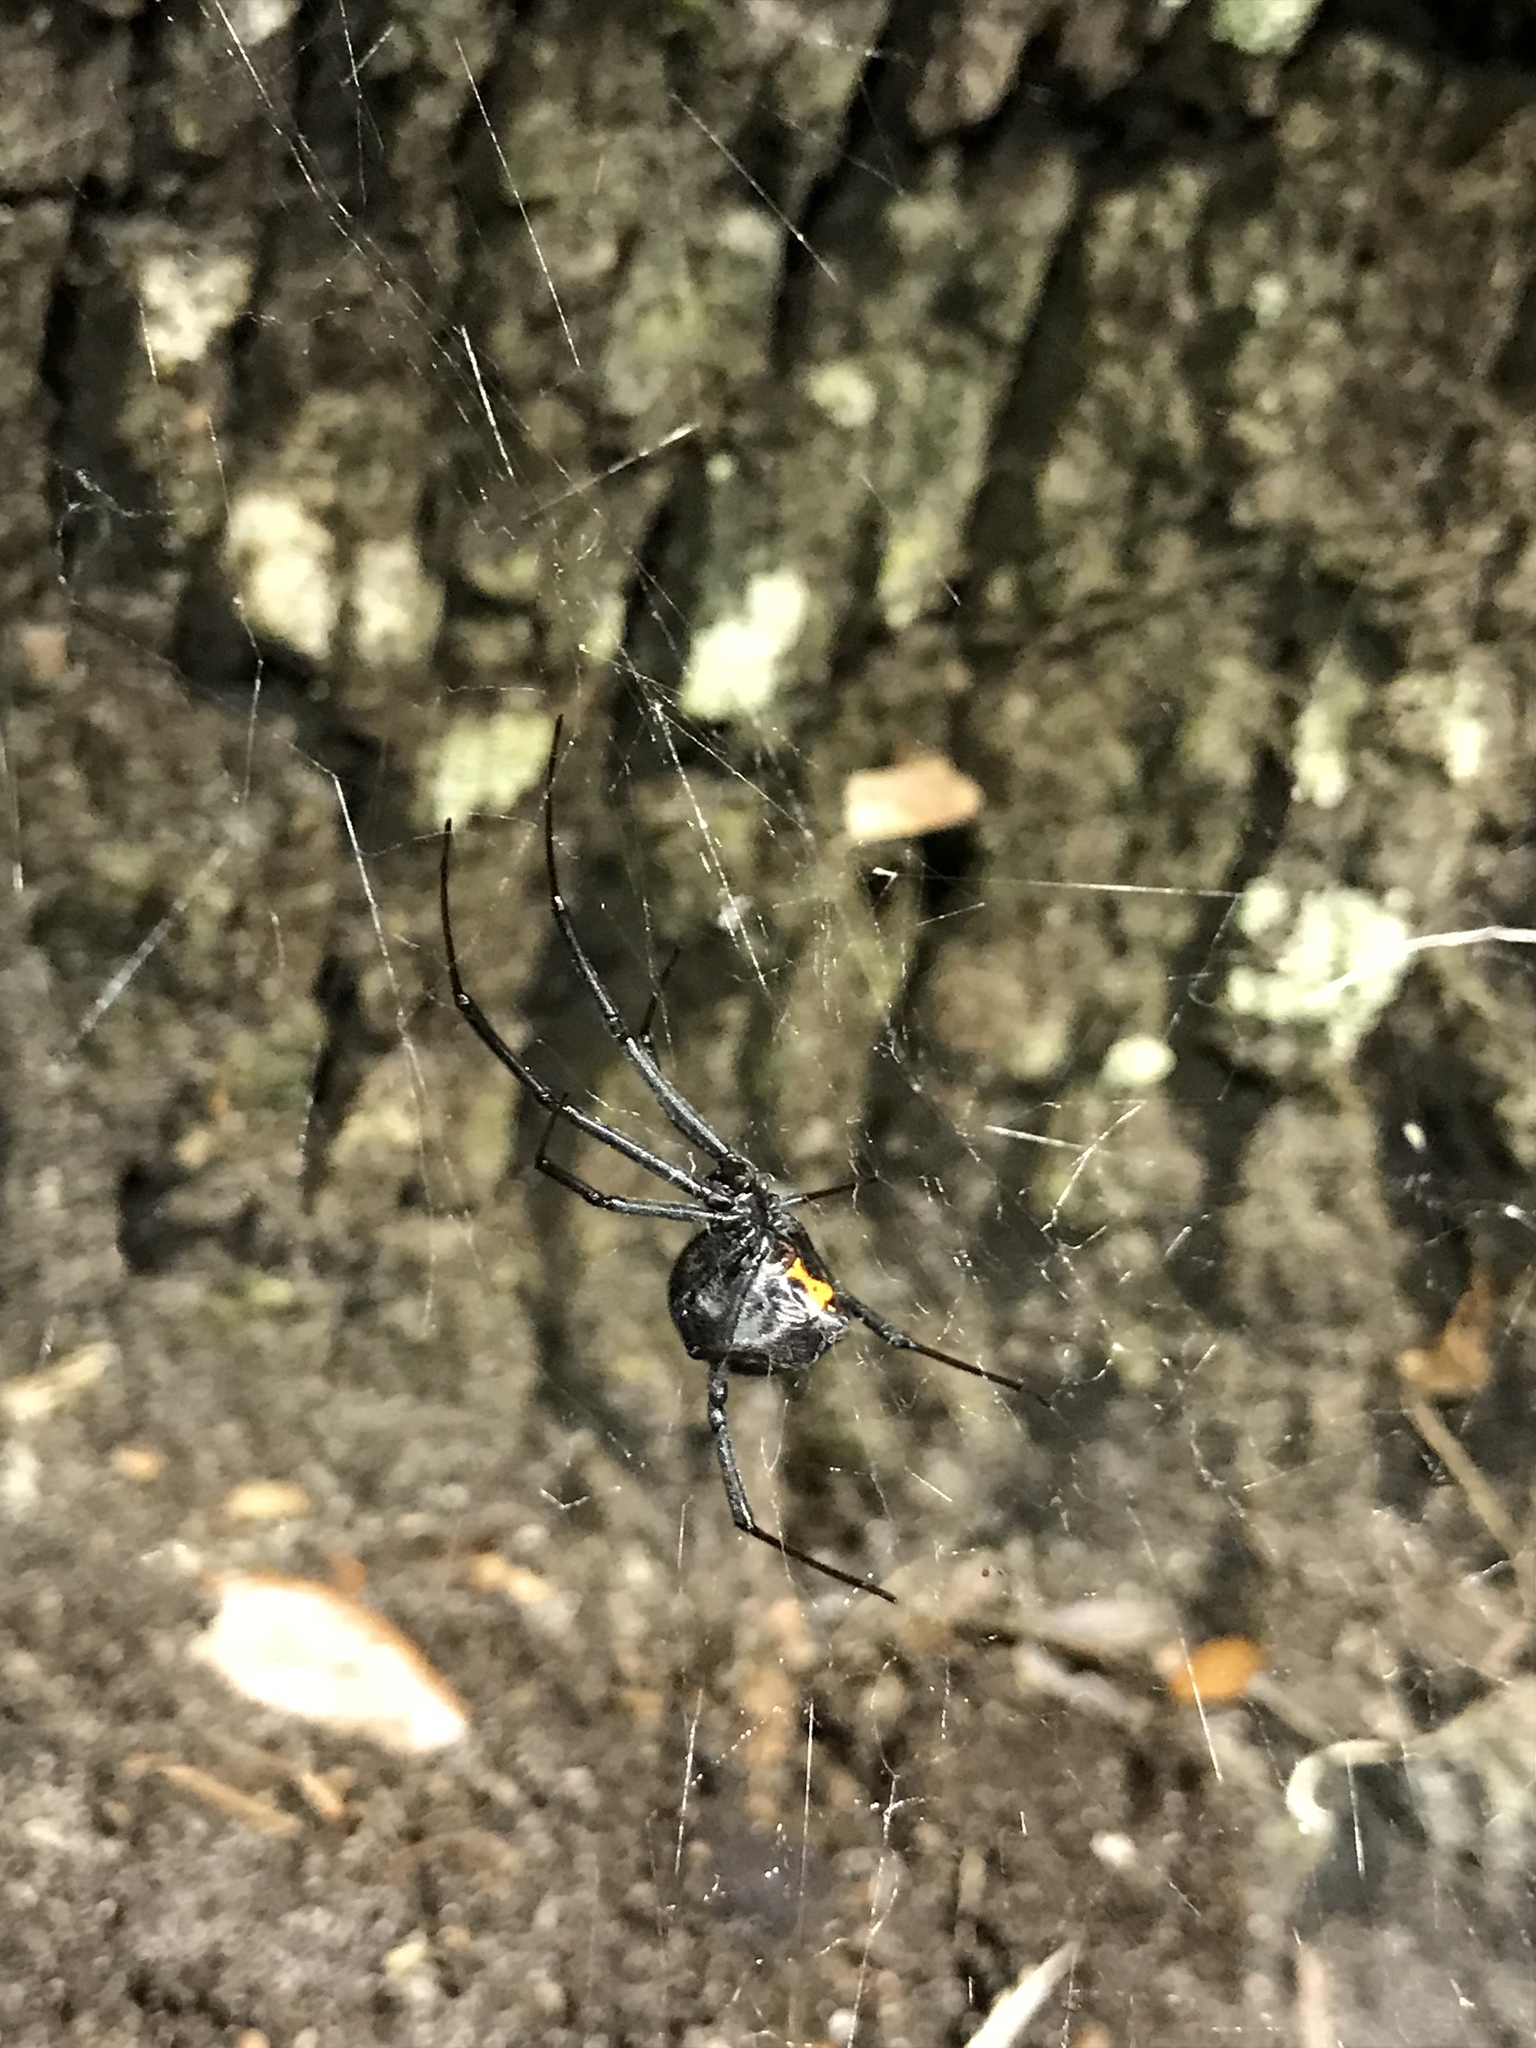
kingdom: Animalia
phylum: Arthropoda
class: Arachnida
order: Araneae
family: Theridiidae
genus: Latrodectus
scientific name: Latrodectus mactans
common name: Cobweb spiders
